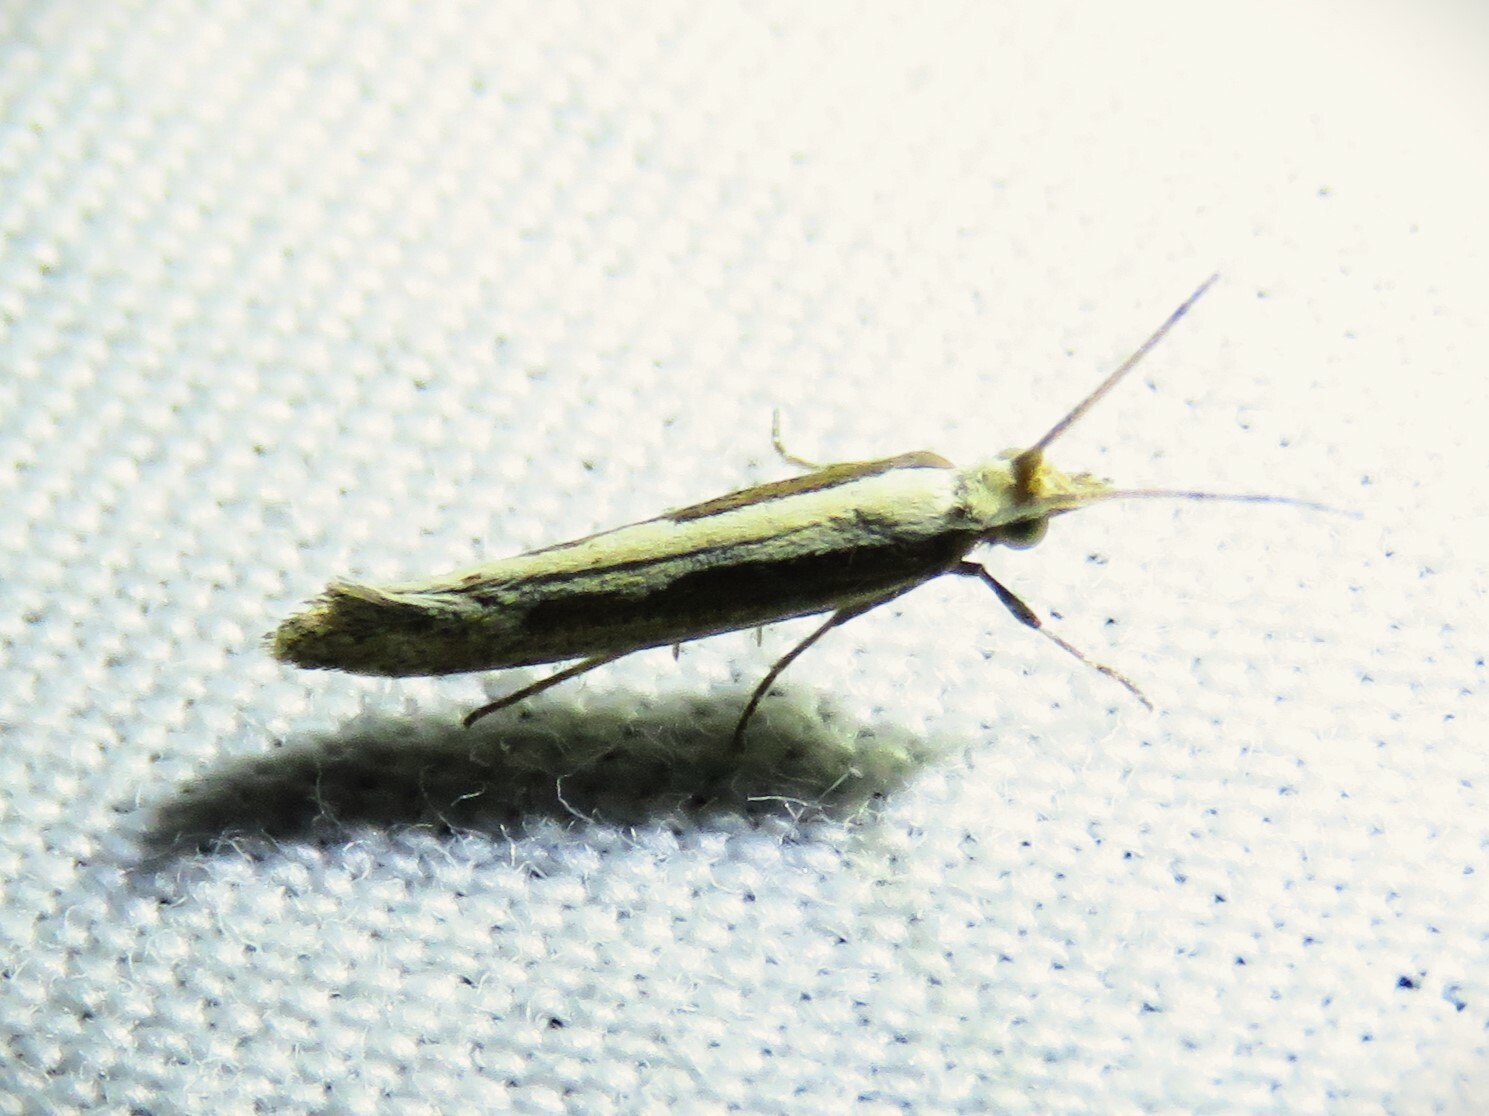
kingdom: Animalia
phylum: Arthropoda
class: Insecta
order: Lepidoptera
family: Plutellidae
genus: Plutella
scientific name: Plutella xylostella
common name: Diamond-back moth
